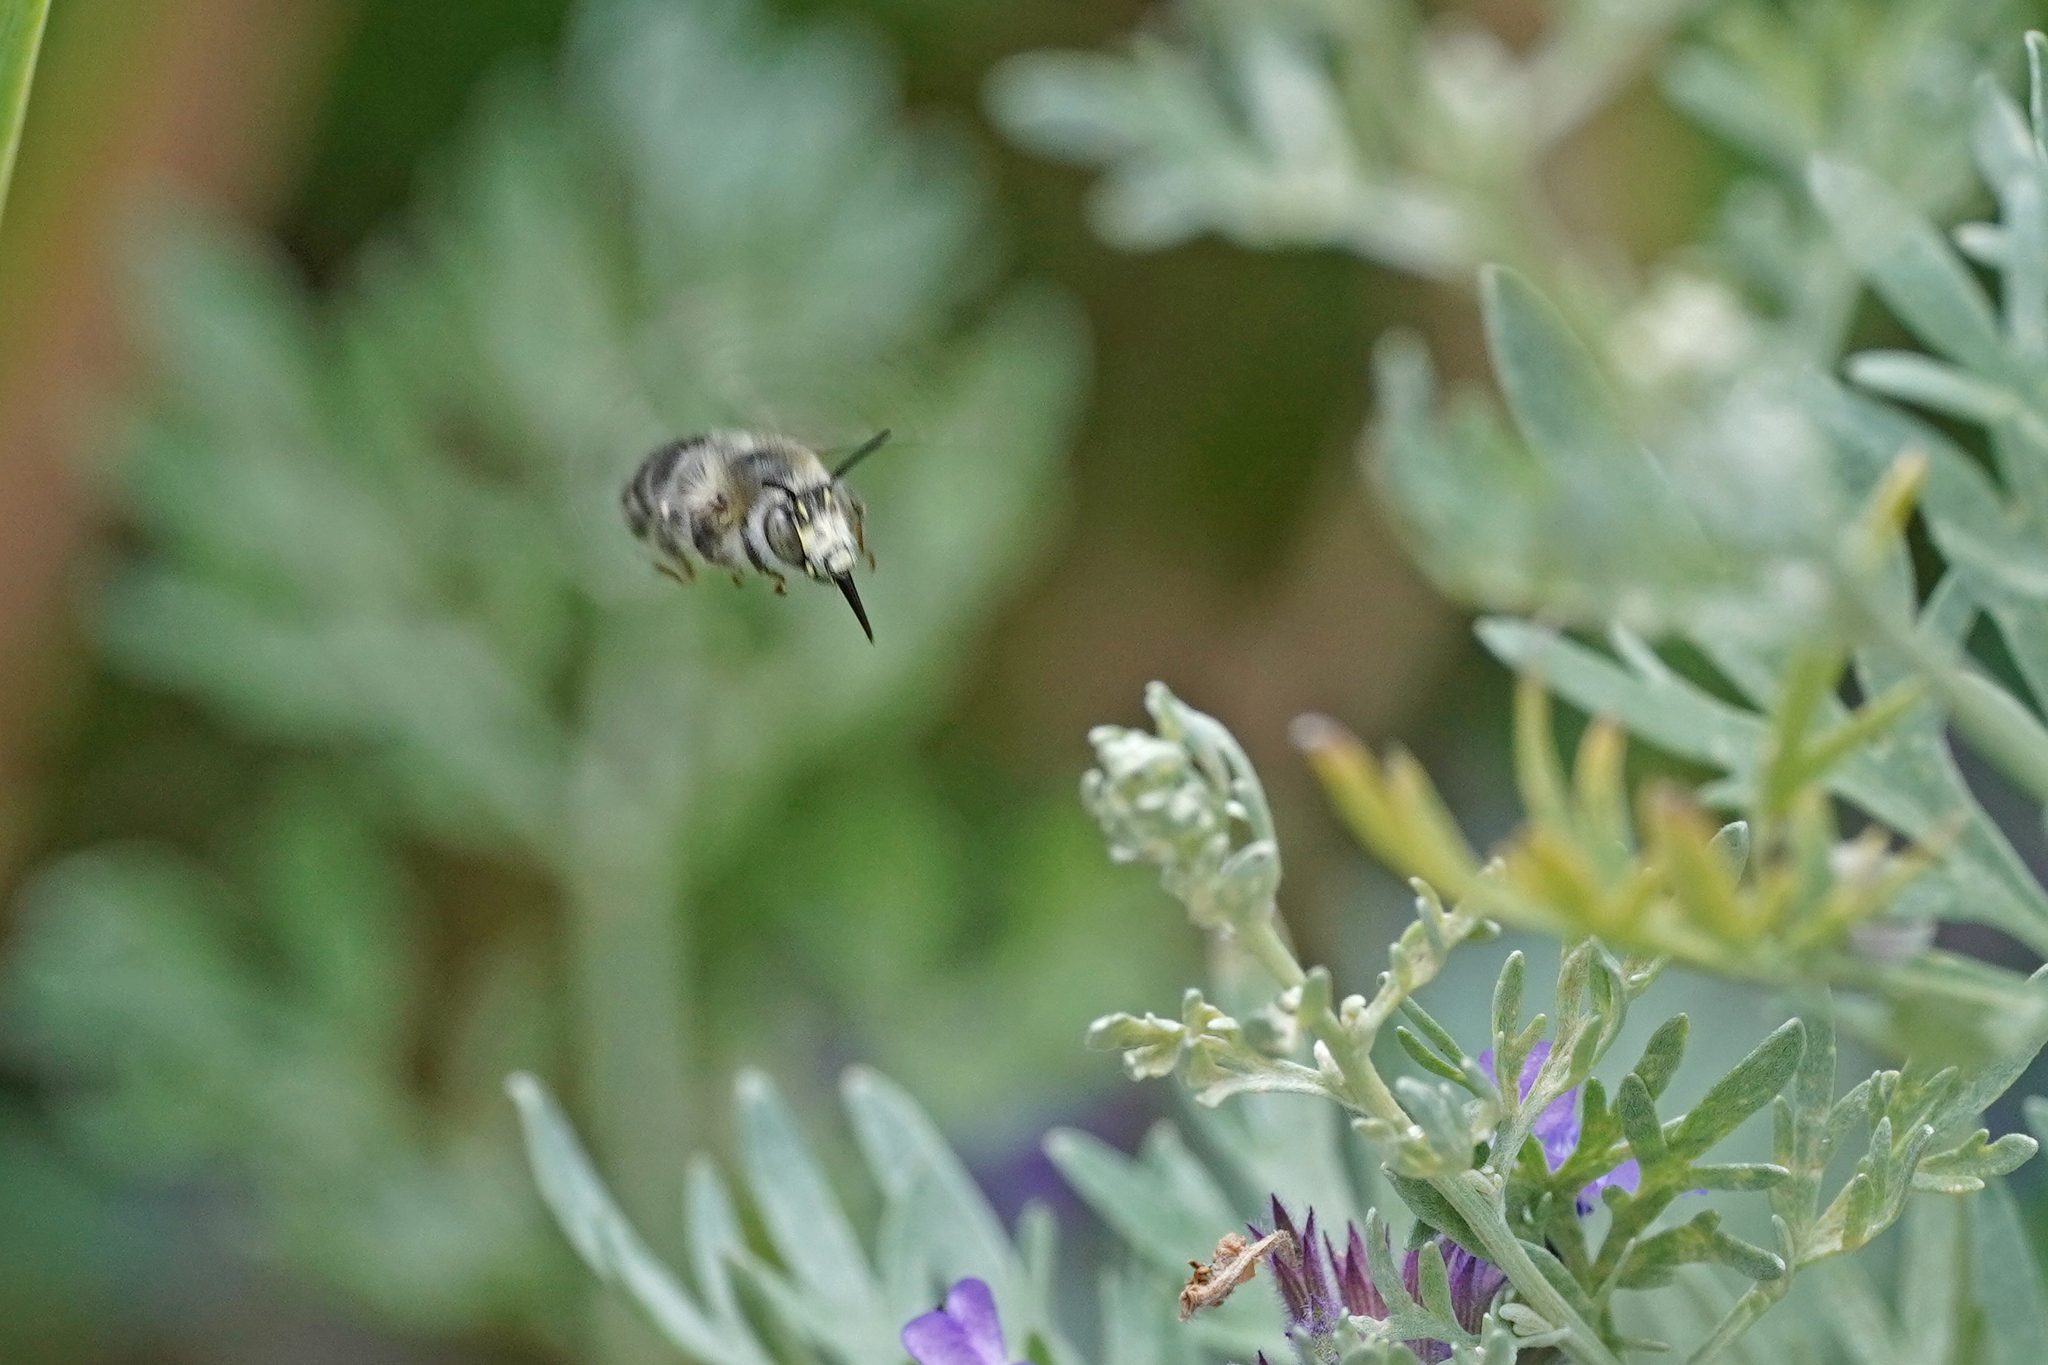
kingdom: Animalia
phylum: Arthropoda
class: Insecta
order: Hymenoptera
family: Apidae
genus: Anthophora
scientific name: Anthophora quadrimaculata
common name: Four-banded flower bee
